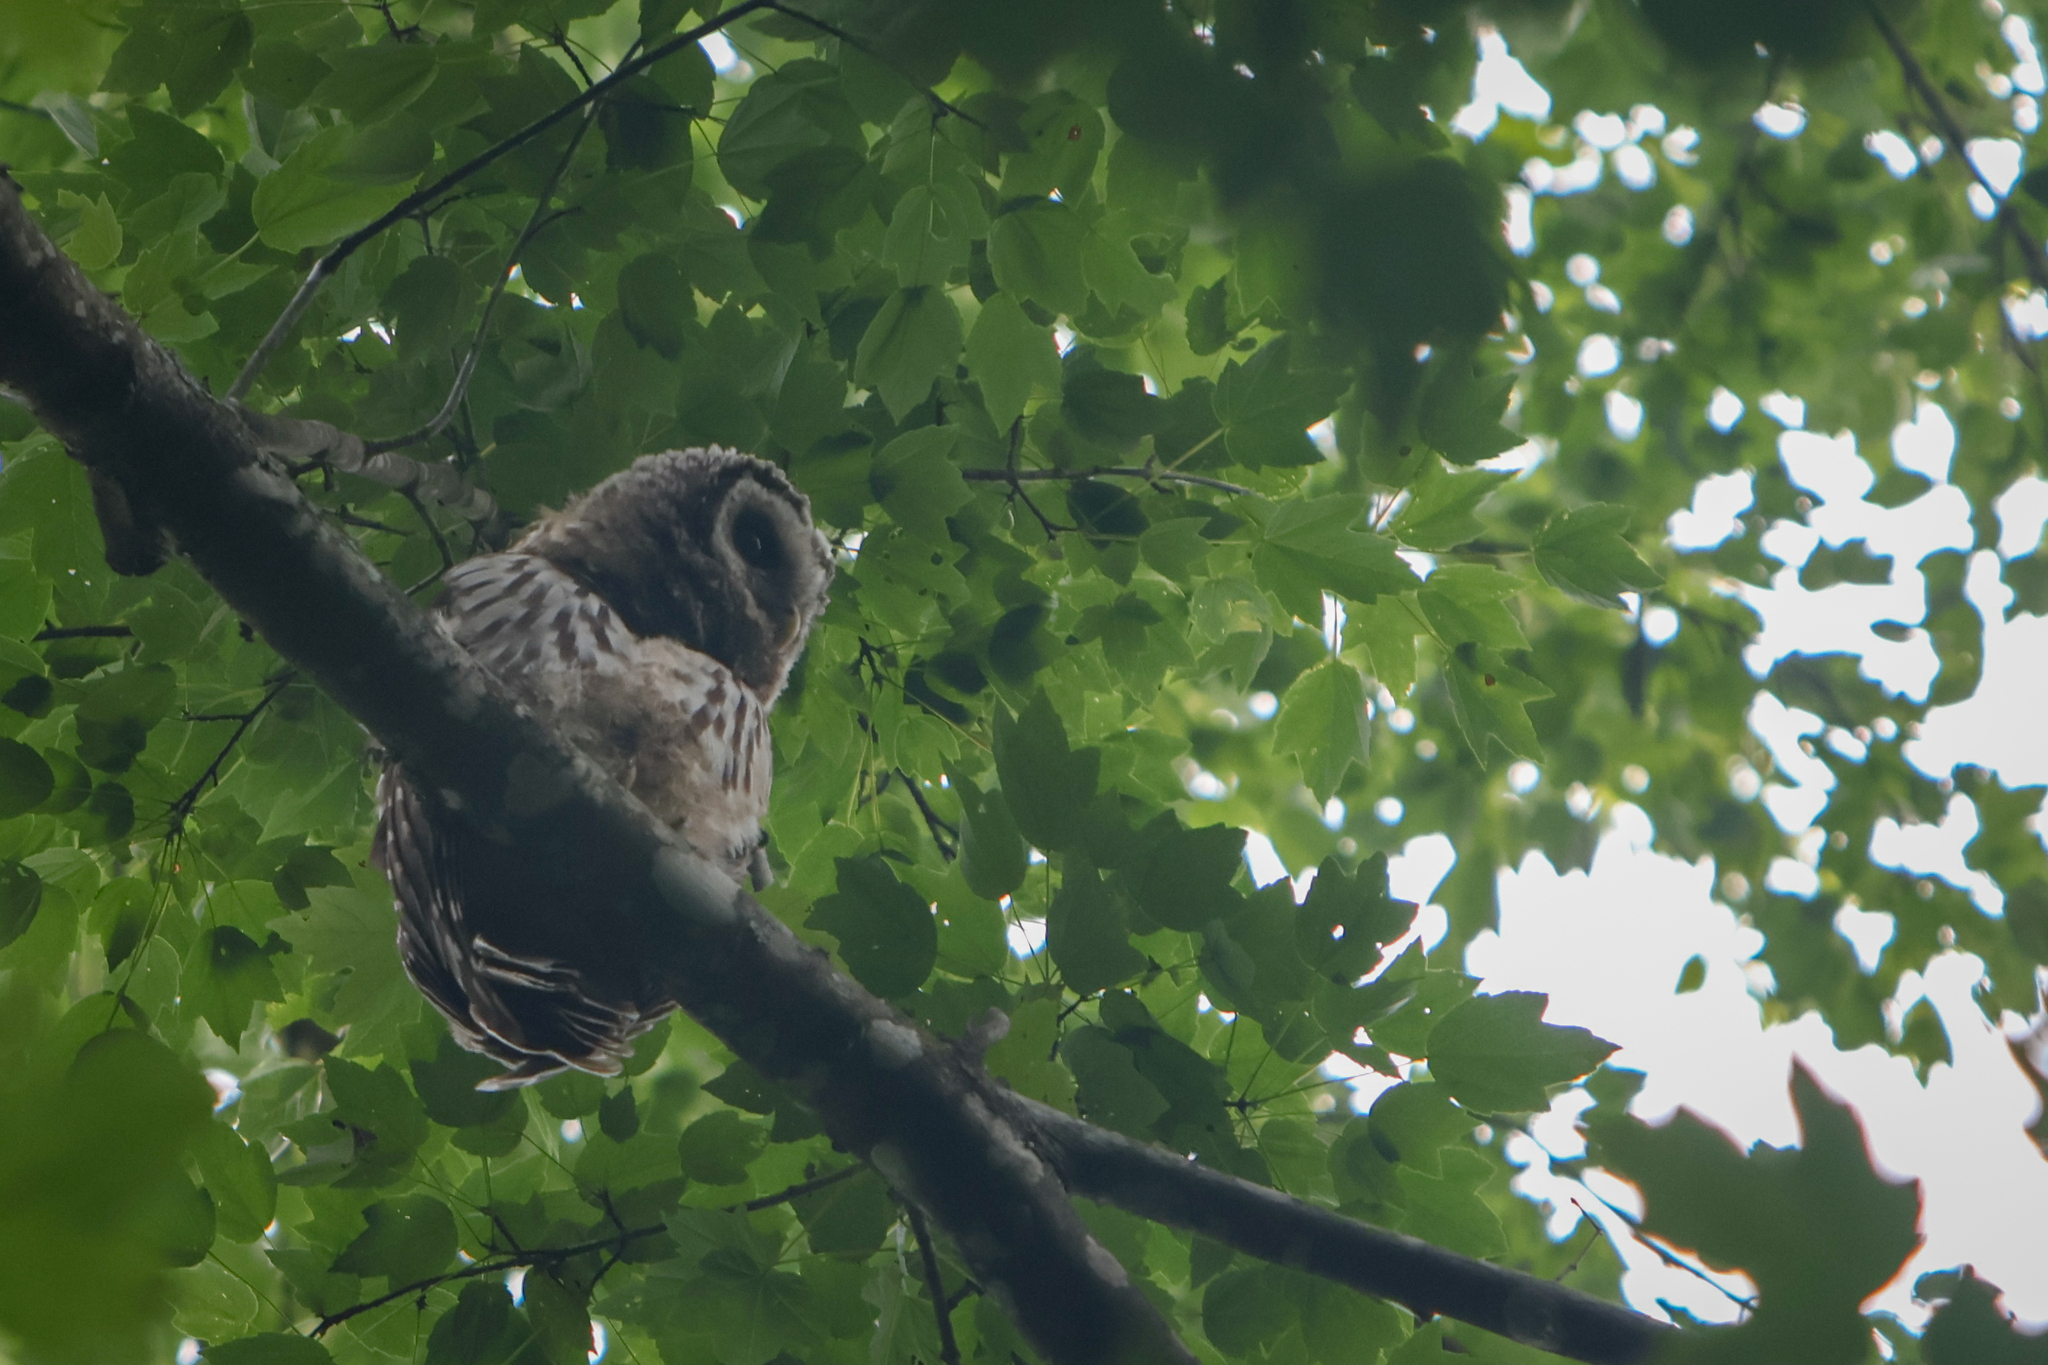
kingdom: Animalia
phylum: Chordata
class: Aves
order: Strigiformes
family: Strigidae
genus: Strix
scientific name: Strix varia
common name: Barred owl
